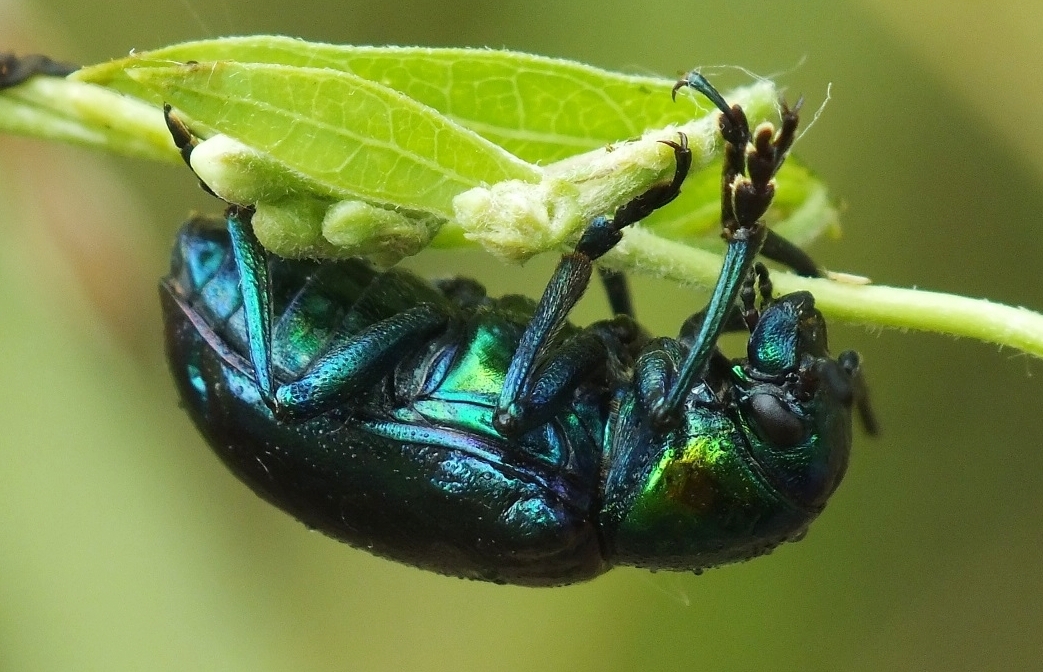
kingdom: Animalia
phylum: Arthropoda
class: Insecta
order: Coleoptera
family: Chrysomelidae
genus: Chrysochares
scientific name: Chrysochares
